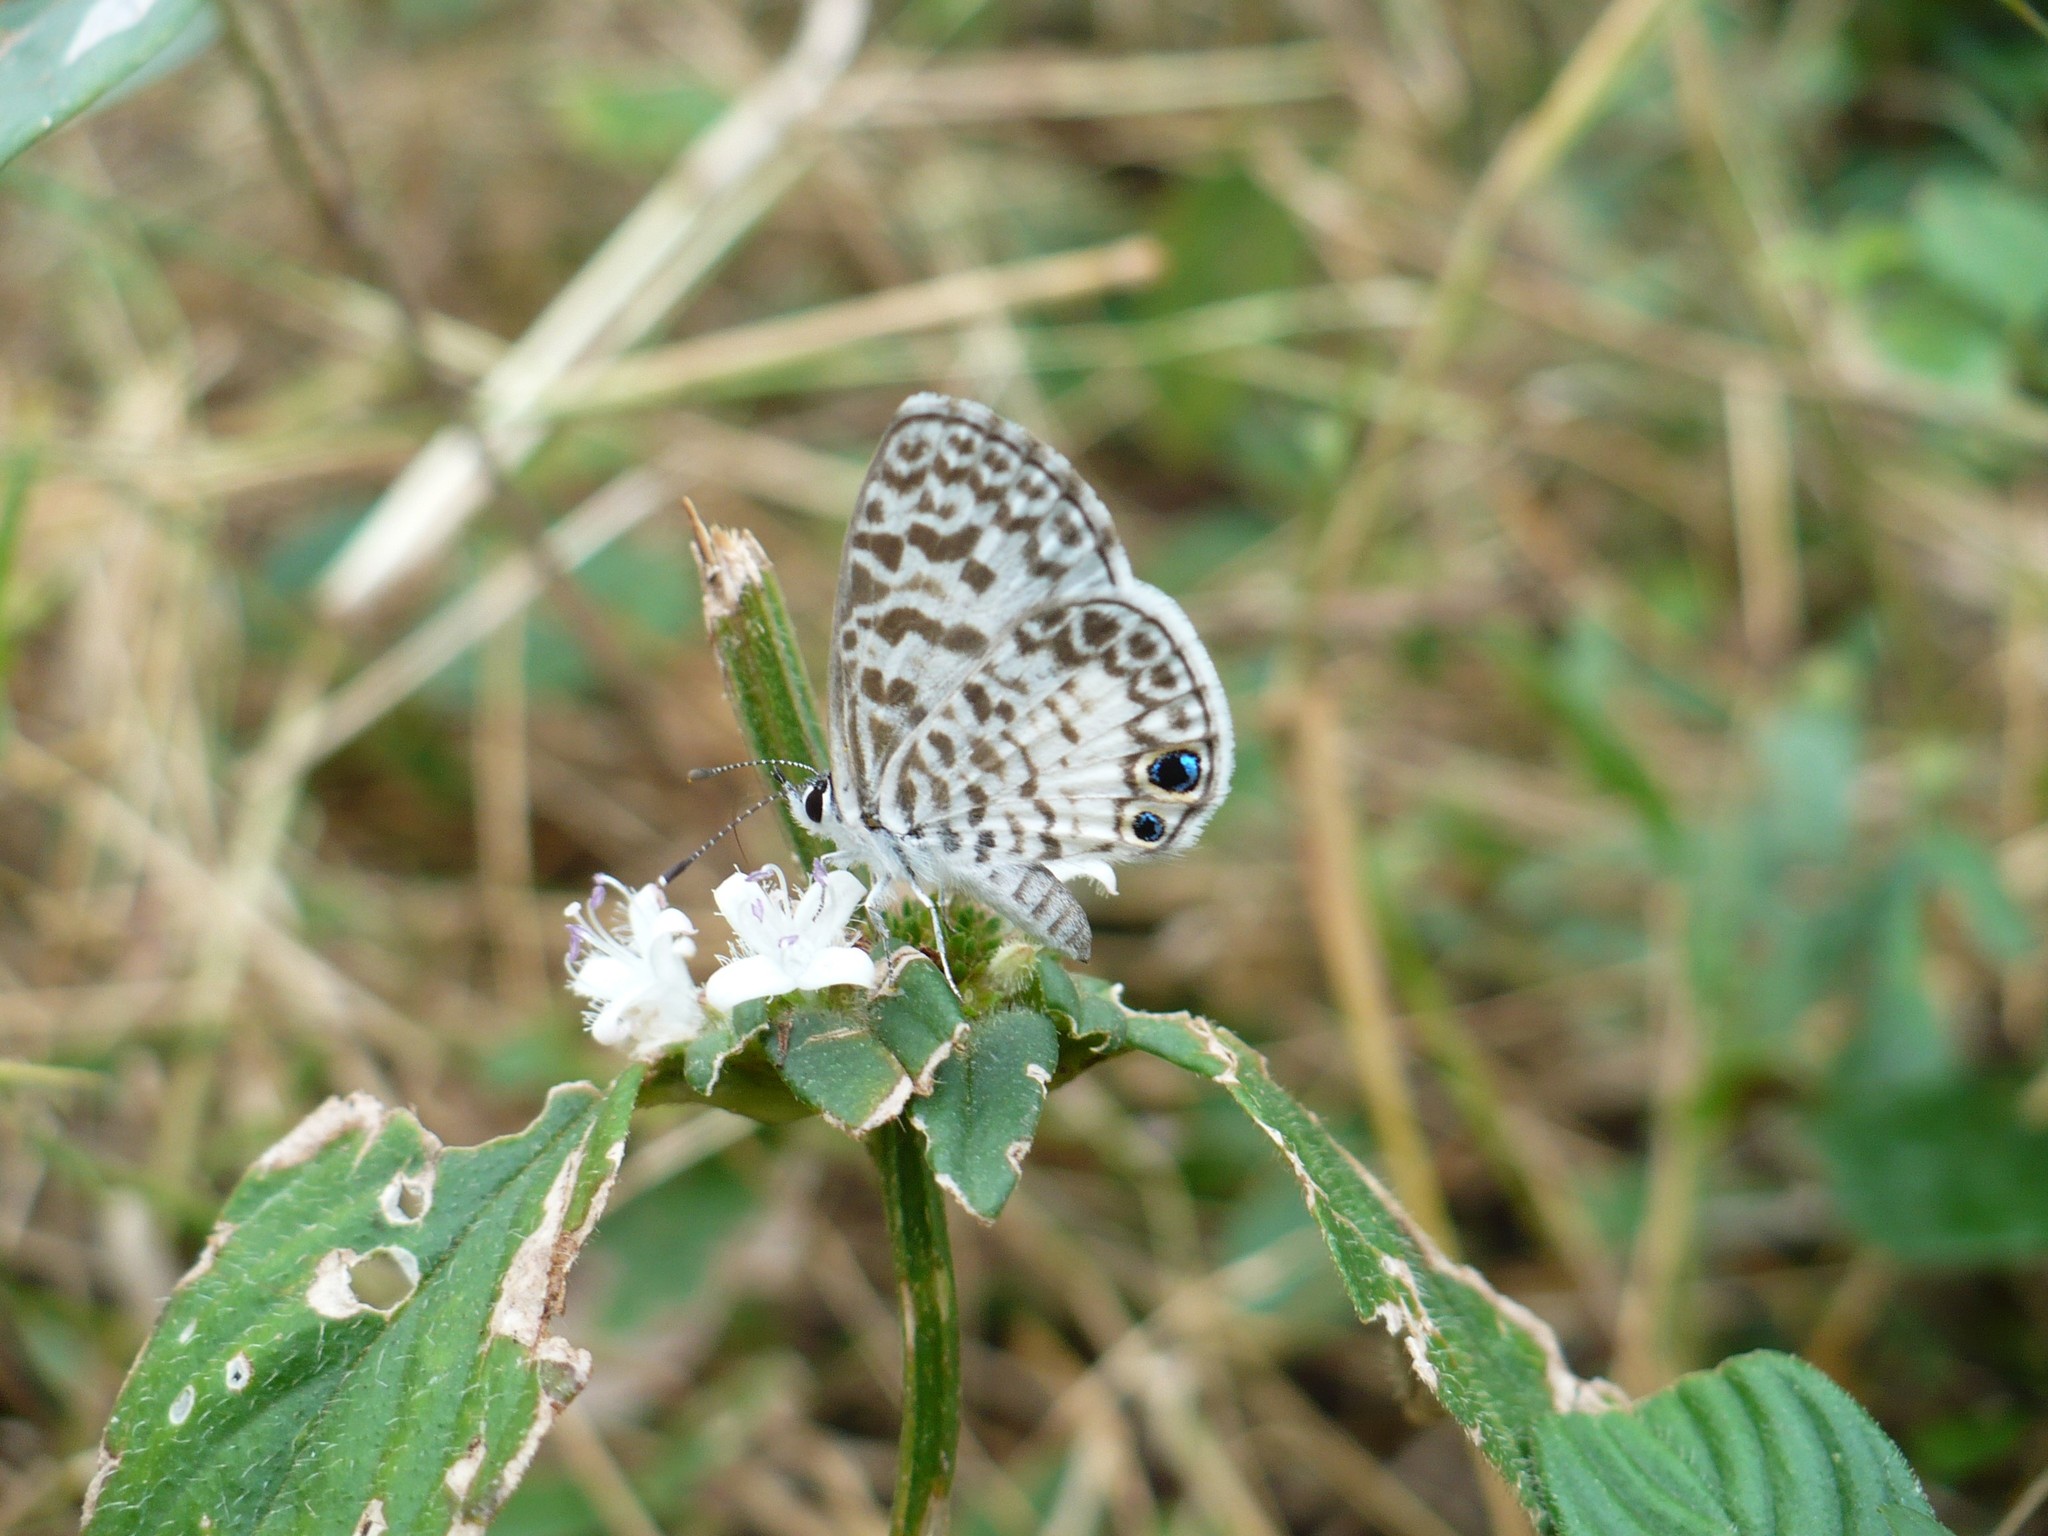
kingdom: Animalia
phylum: Arthropoda
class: Insecta
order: Lepidoptera
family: Lycaenidae
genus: Leptotes
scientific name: Leptotes cassius
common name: Cassius blue
